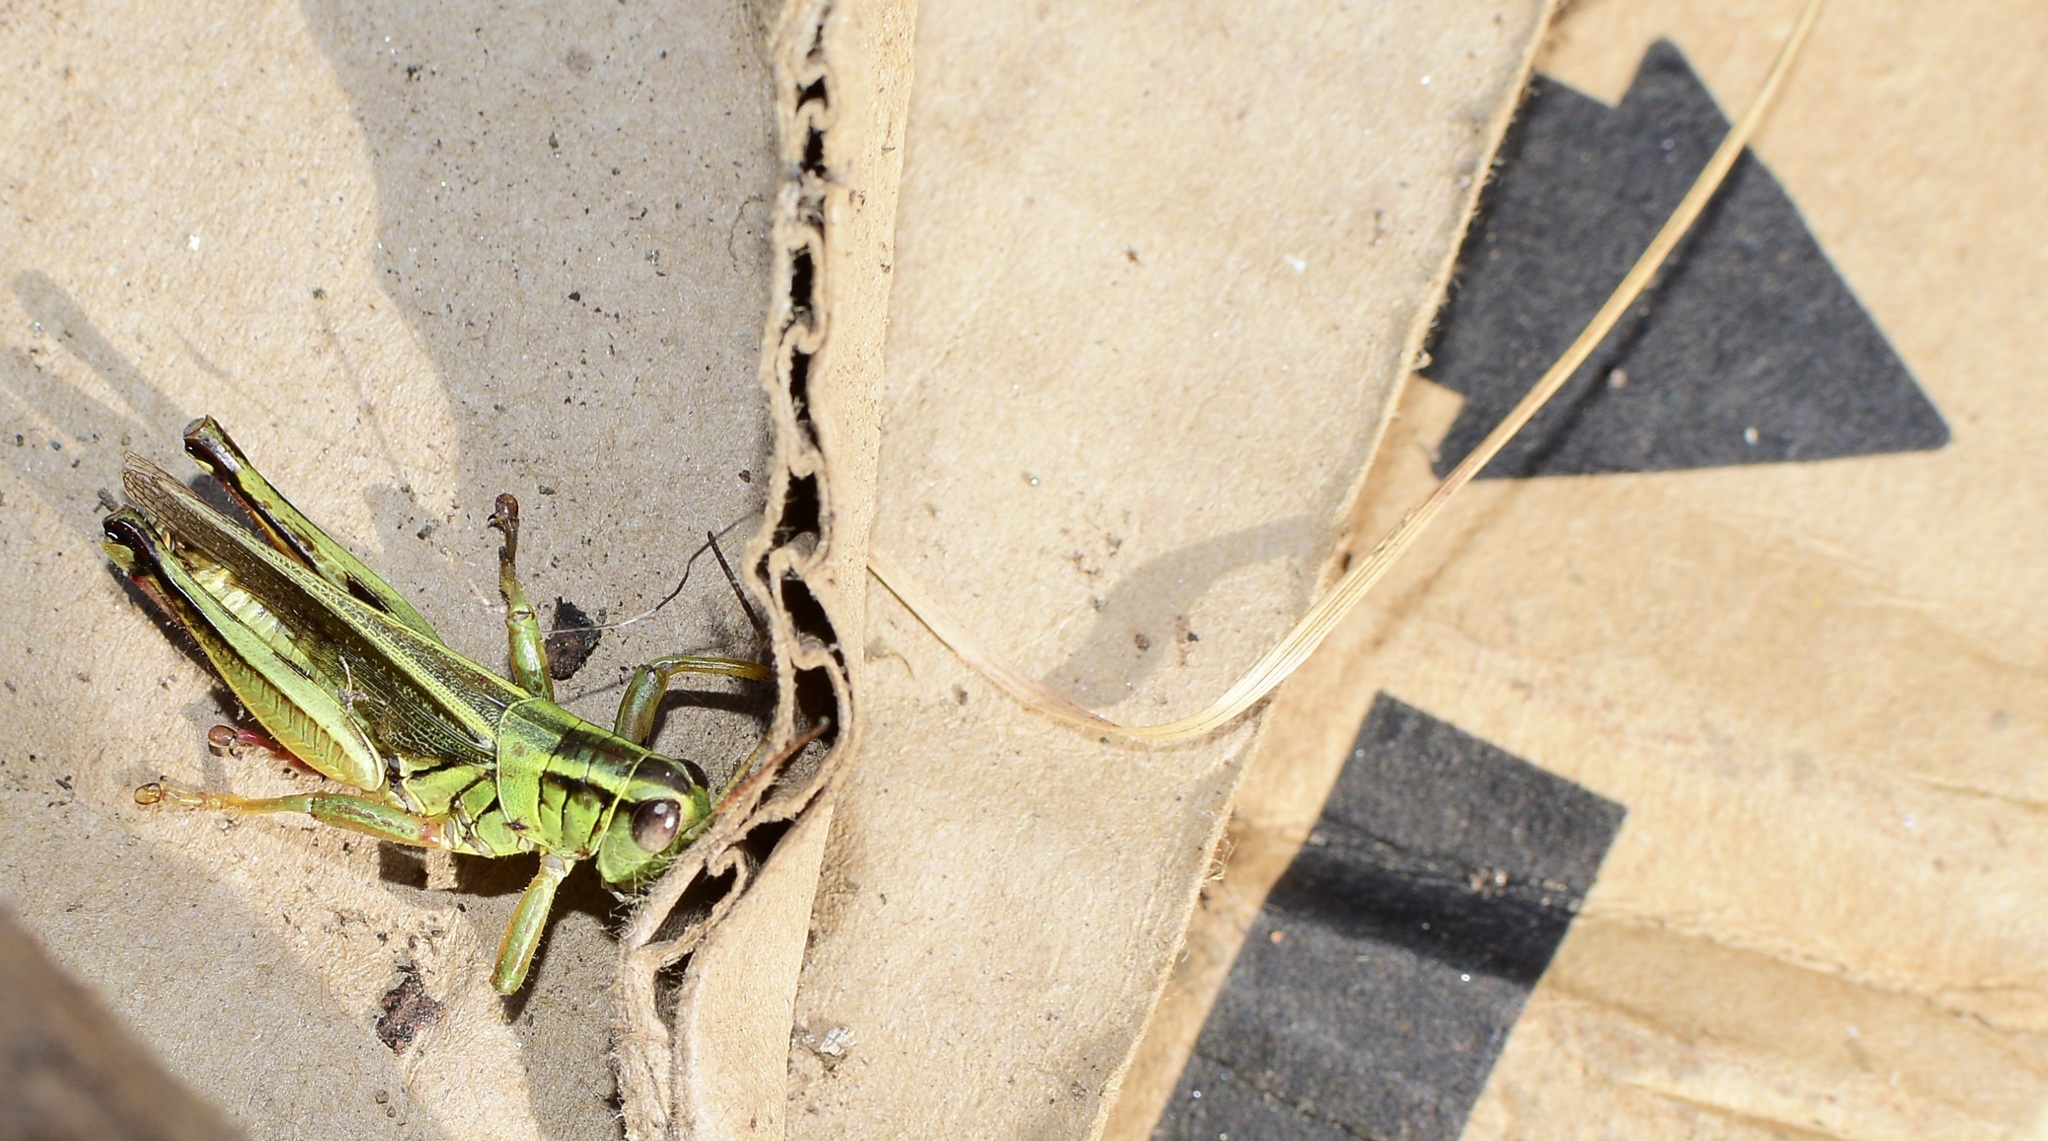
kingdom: Animalia
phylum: Arthropoda
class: Insecta
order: Orthoptera
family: Acrididae
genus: Melanoplus
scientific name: Melanoplus bivittatus
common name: Two-striped grasshopper
